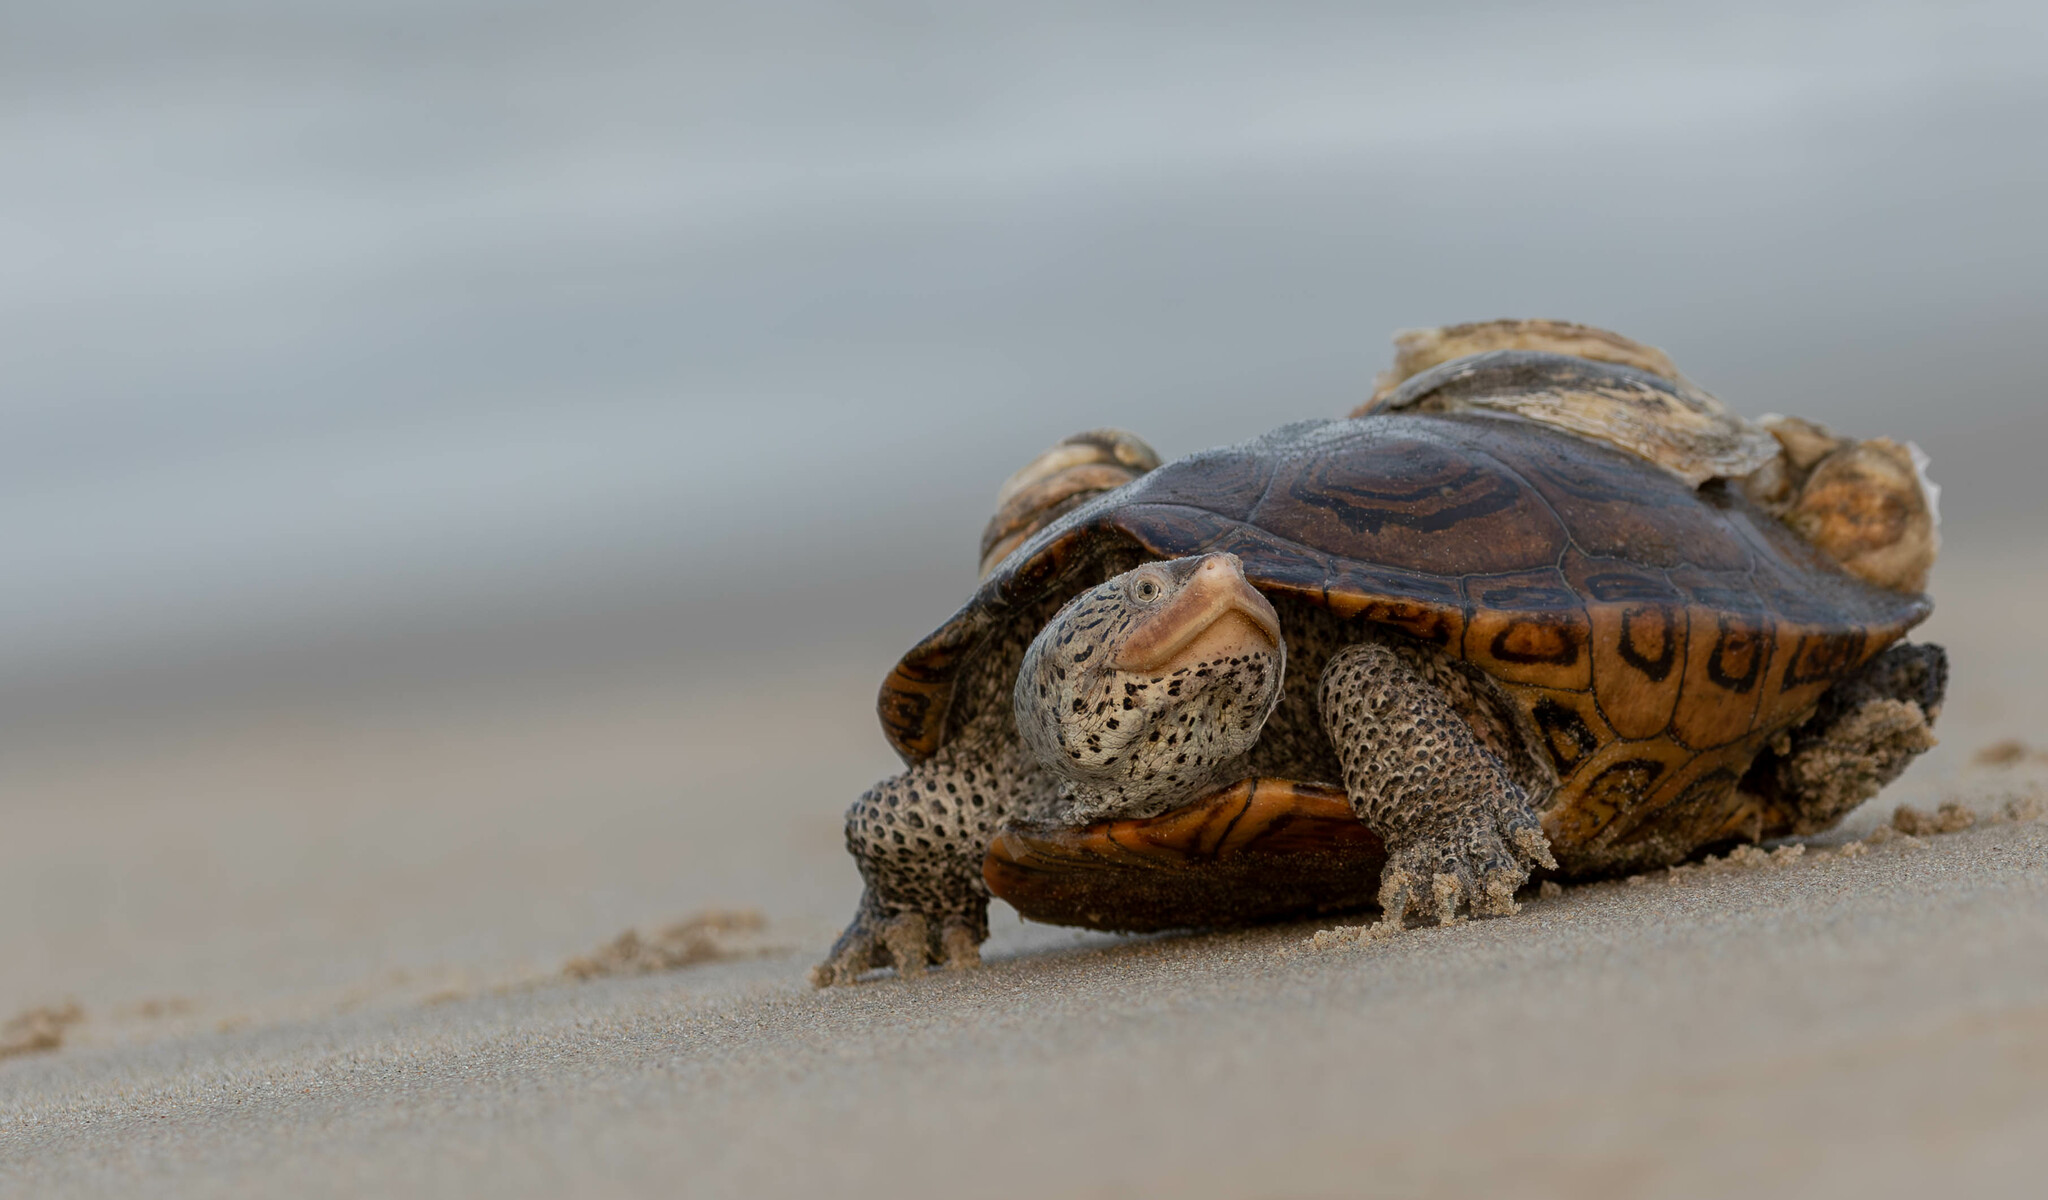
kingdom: Animalia
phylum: Chordata
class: Testudines
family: Emydidae
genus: Malaclemys
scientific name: Malaclemys terrapin
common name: Diamondback terrapin
